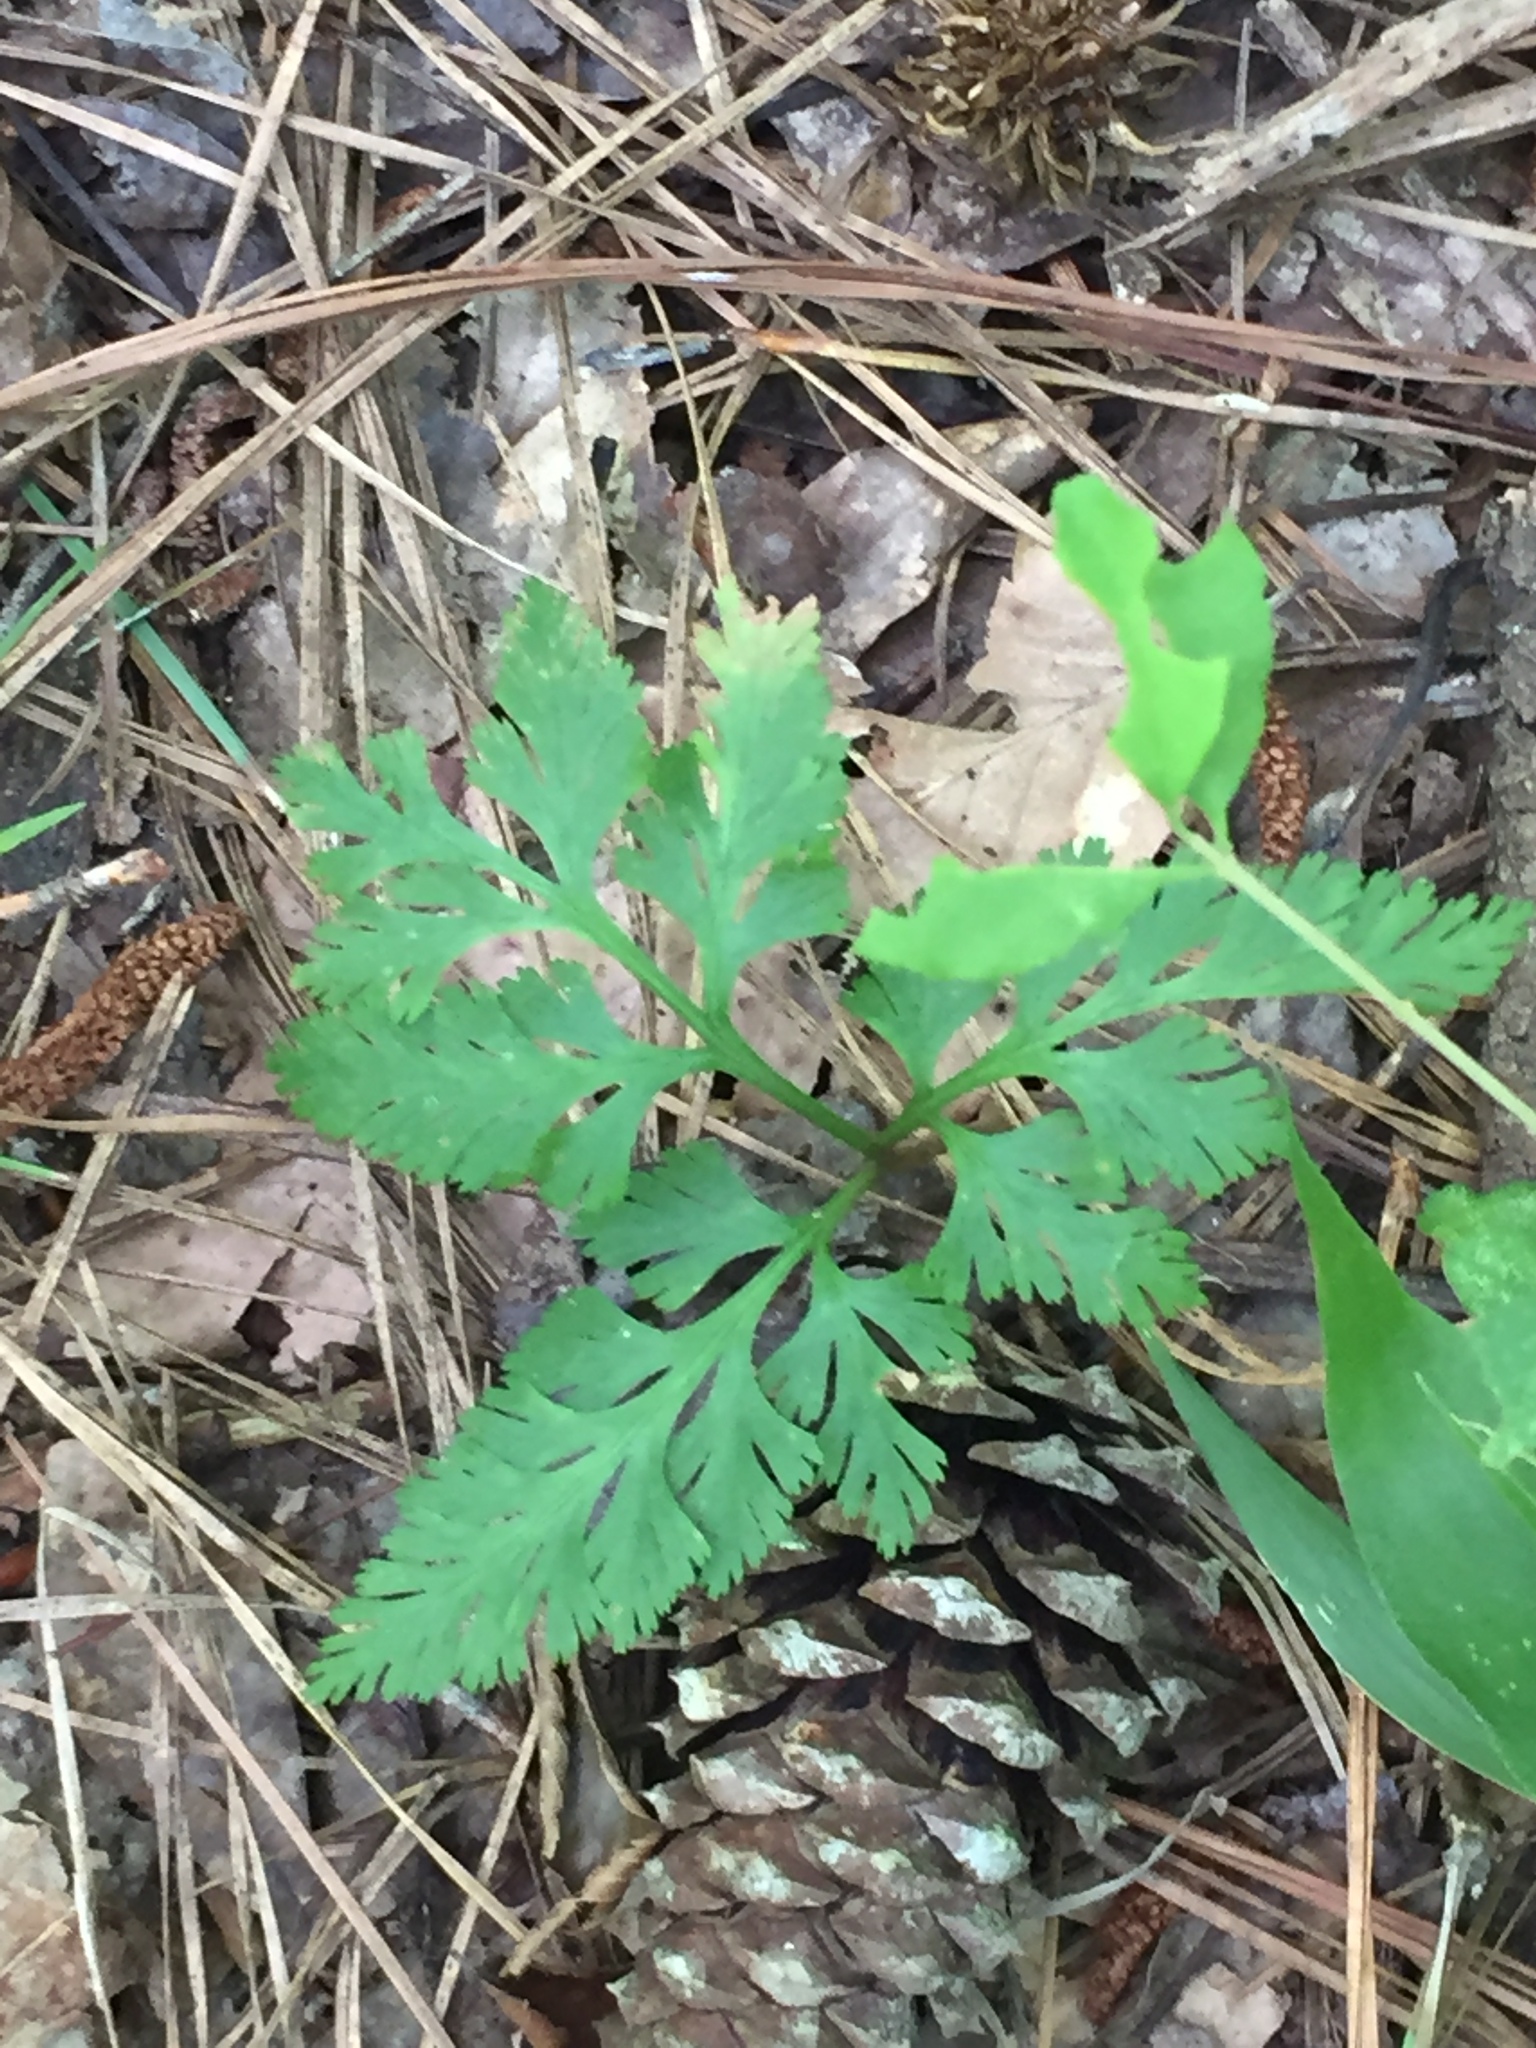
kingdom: Plantae
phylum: Tracheophyta
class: Polypodiopsida
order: Ophioglossales
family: Ophioglossaceae
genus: Botrypus
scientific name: Botrypus virginianus
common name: Common grapefern
